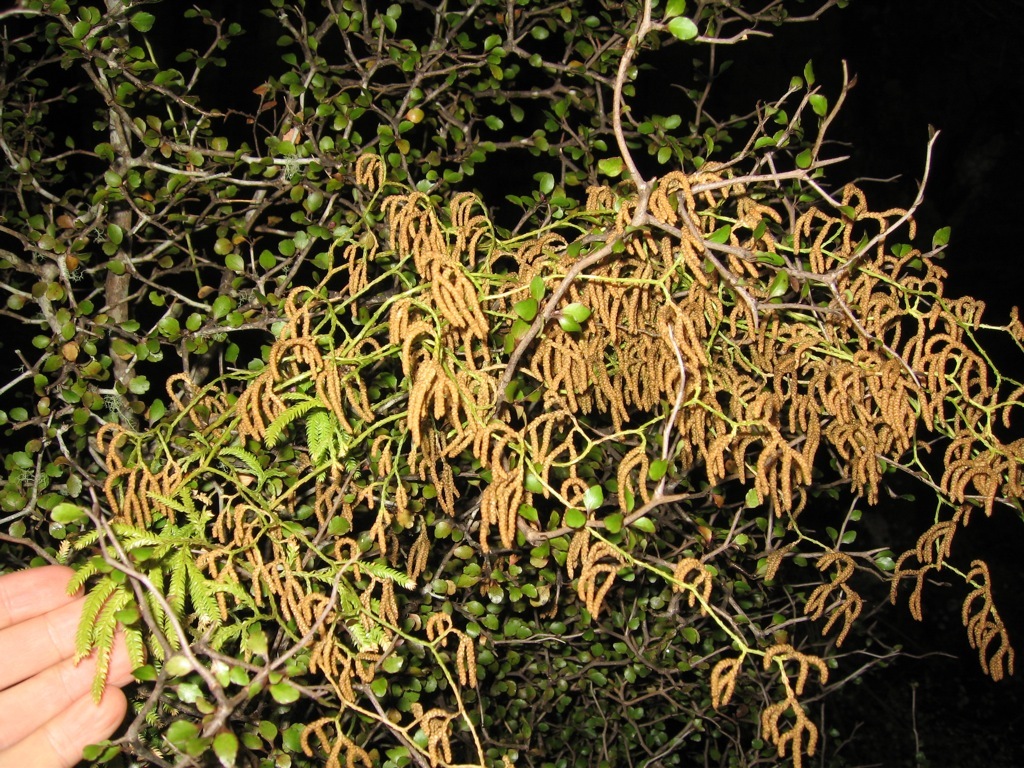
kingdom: Plantae
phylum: Tracheophyta
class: Lycopodiopsida
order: Lycopodiales
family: Lycopodiaceae
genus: Lycopodium
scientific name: Lycopodium volubile
